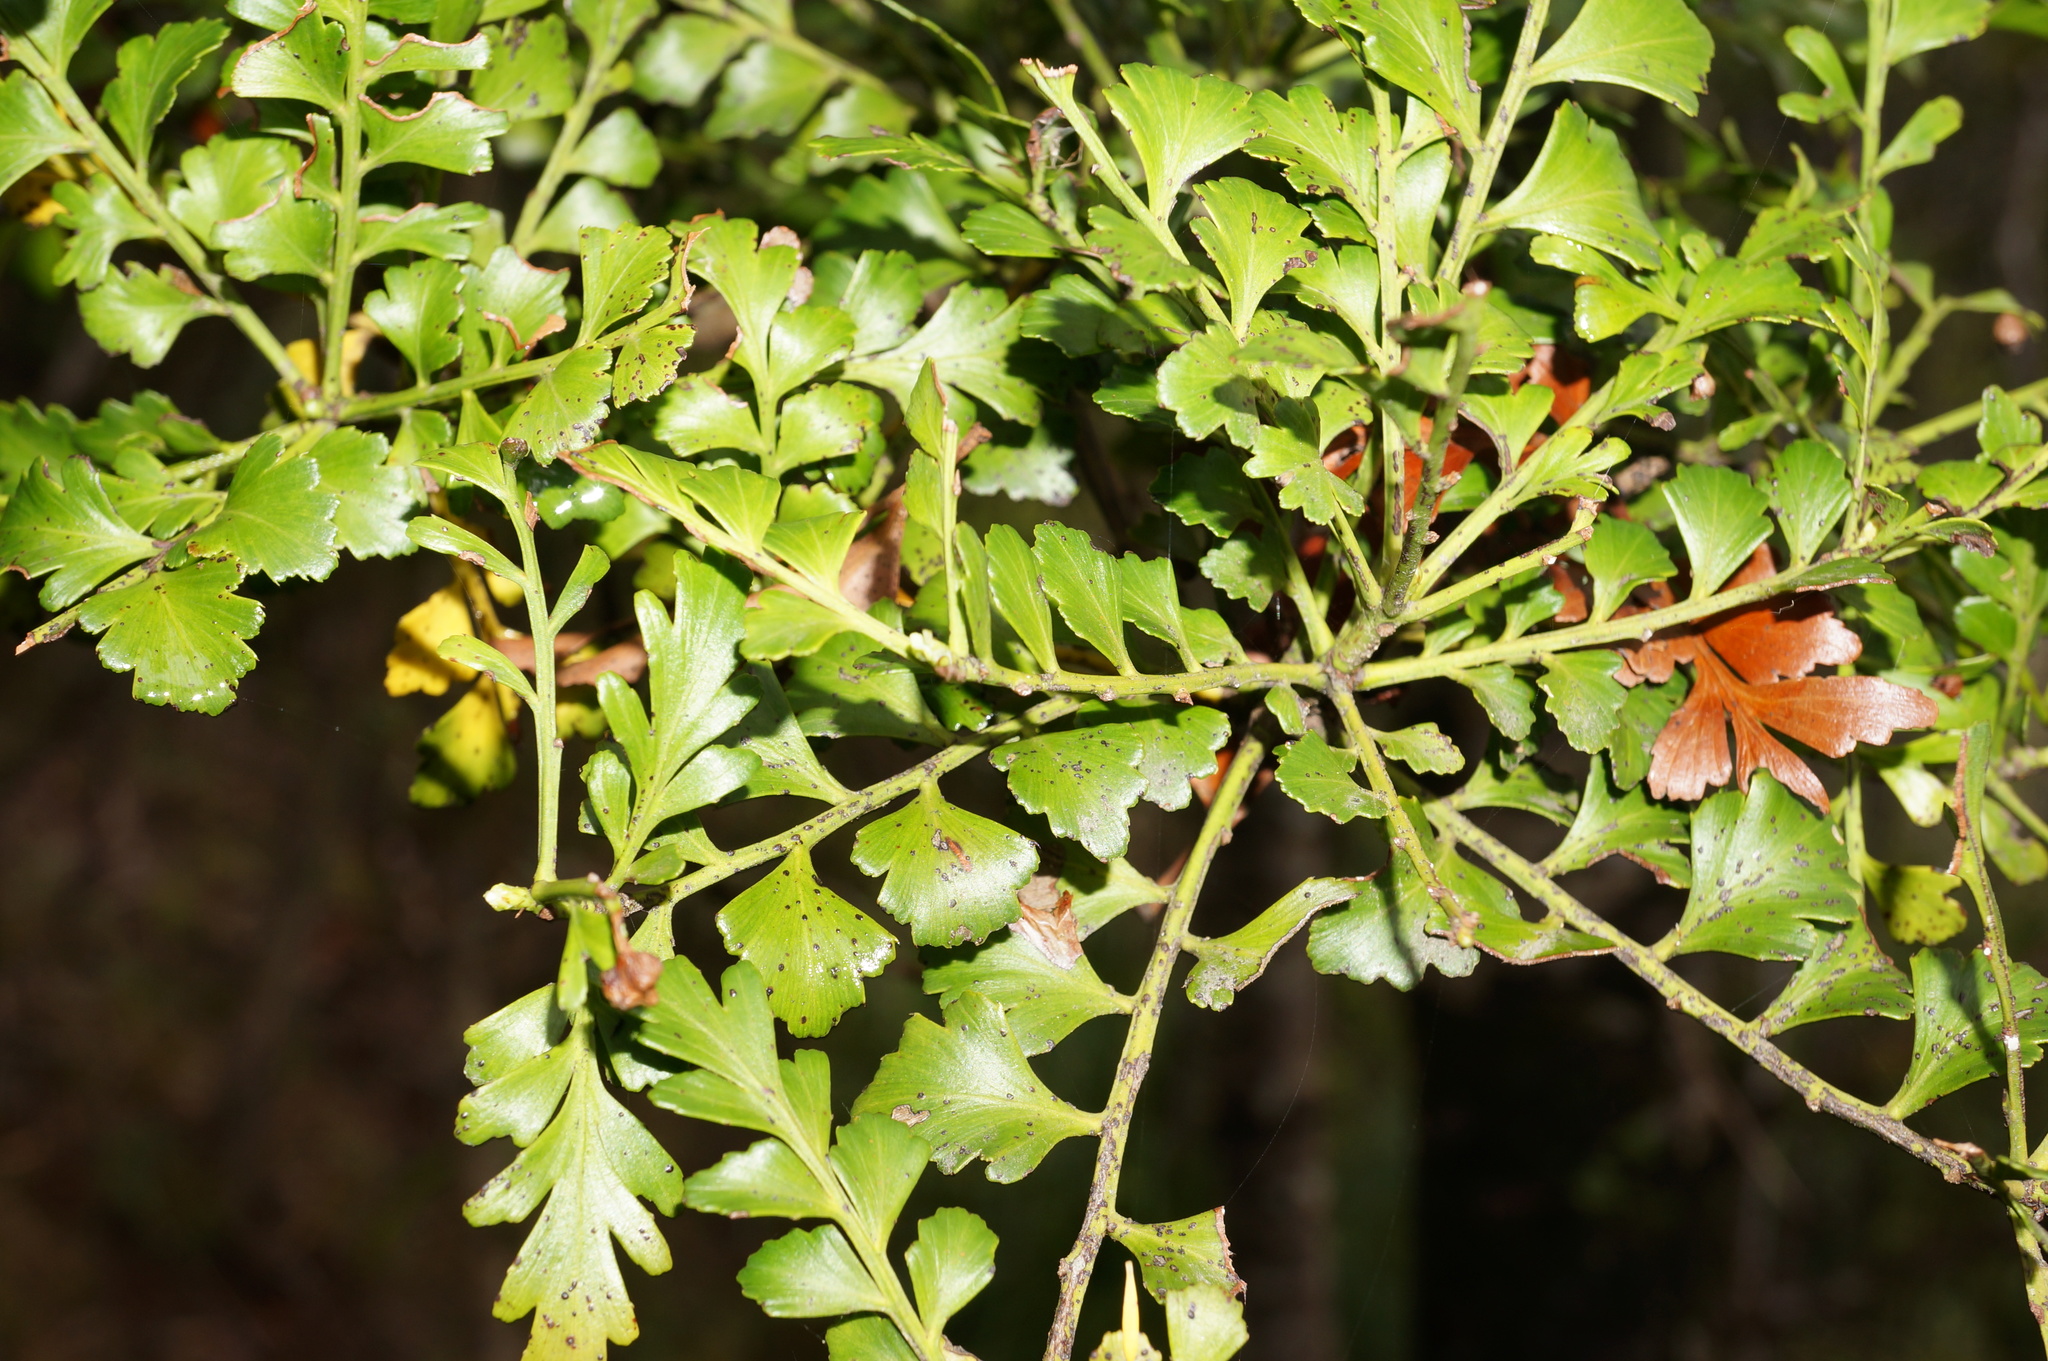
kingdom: Plantae
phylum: Tracheophyta
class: Pinopsida
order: Pinales
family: Phyllocladaceae
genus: Phyllocladus
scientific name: Phyllocladus trichomanoides
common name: Celery pine
